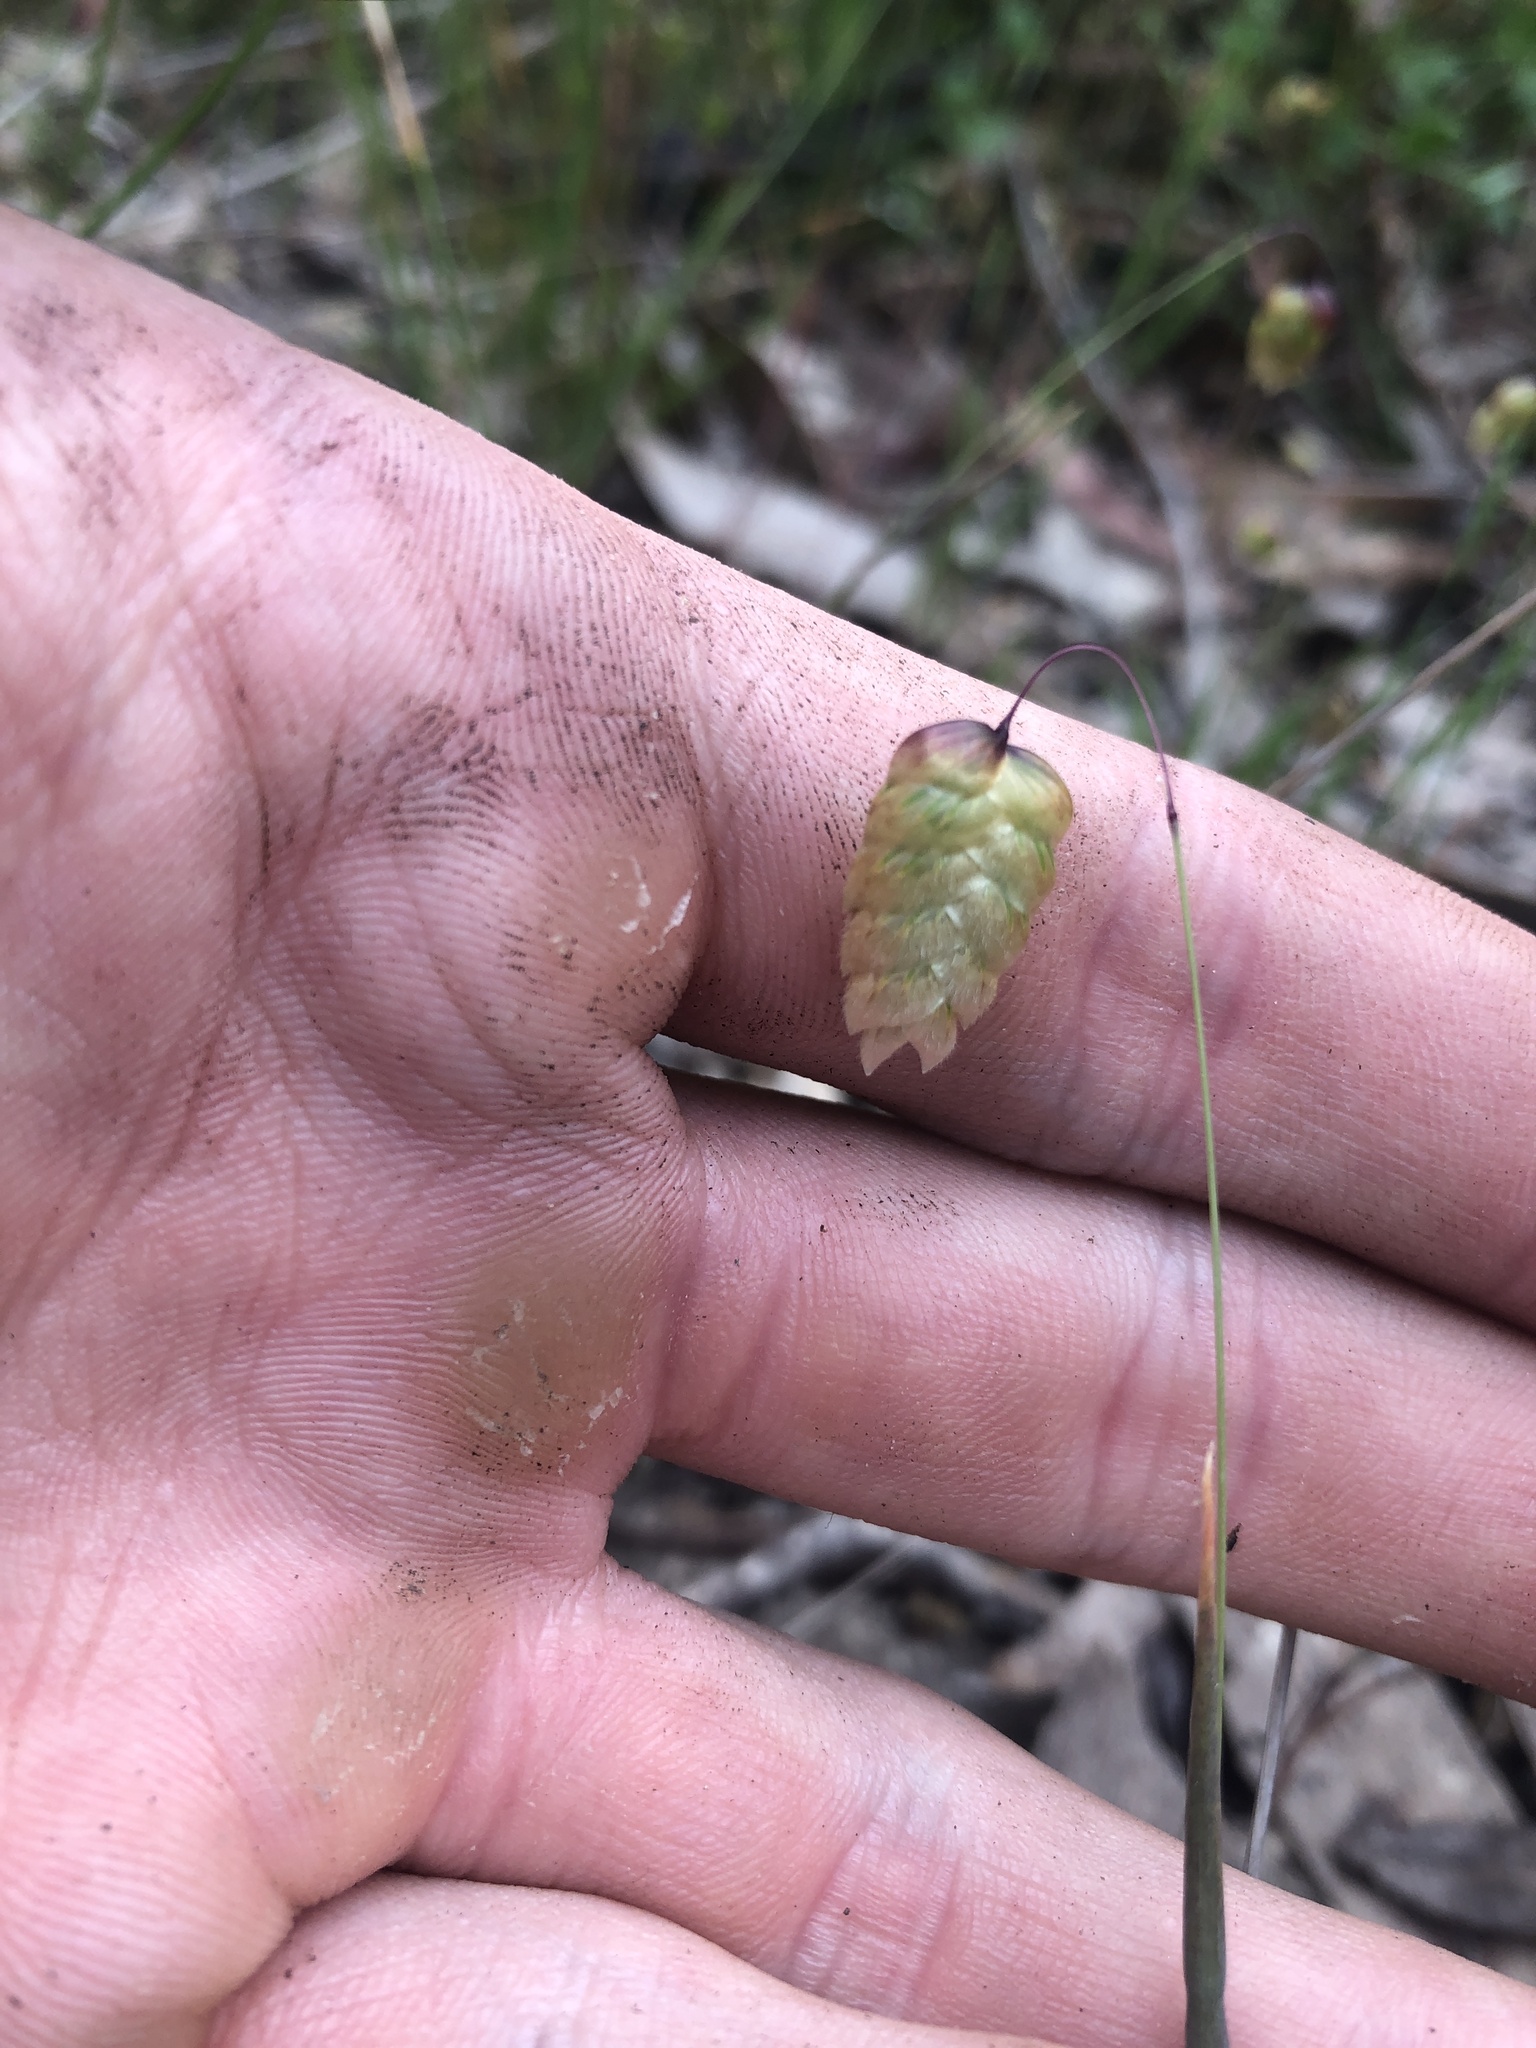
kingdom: Plantae
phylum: Tracheophyta
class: Liliopsida
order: Poales
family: Poaceae
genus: Briza
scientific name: Briza maxima
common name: Big quakinggrass
